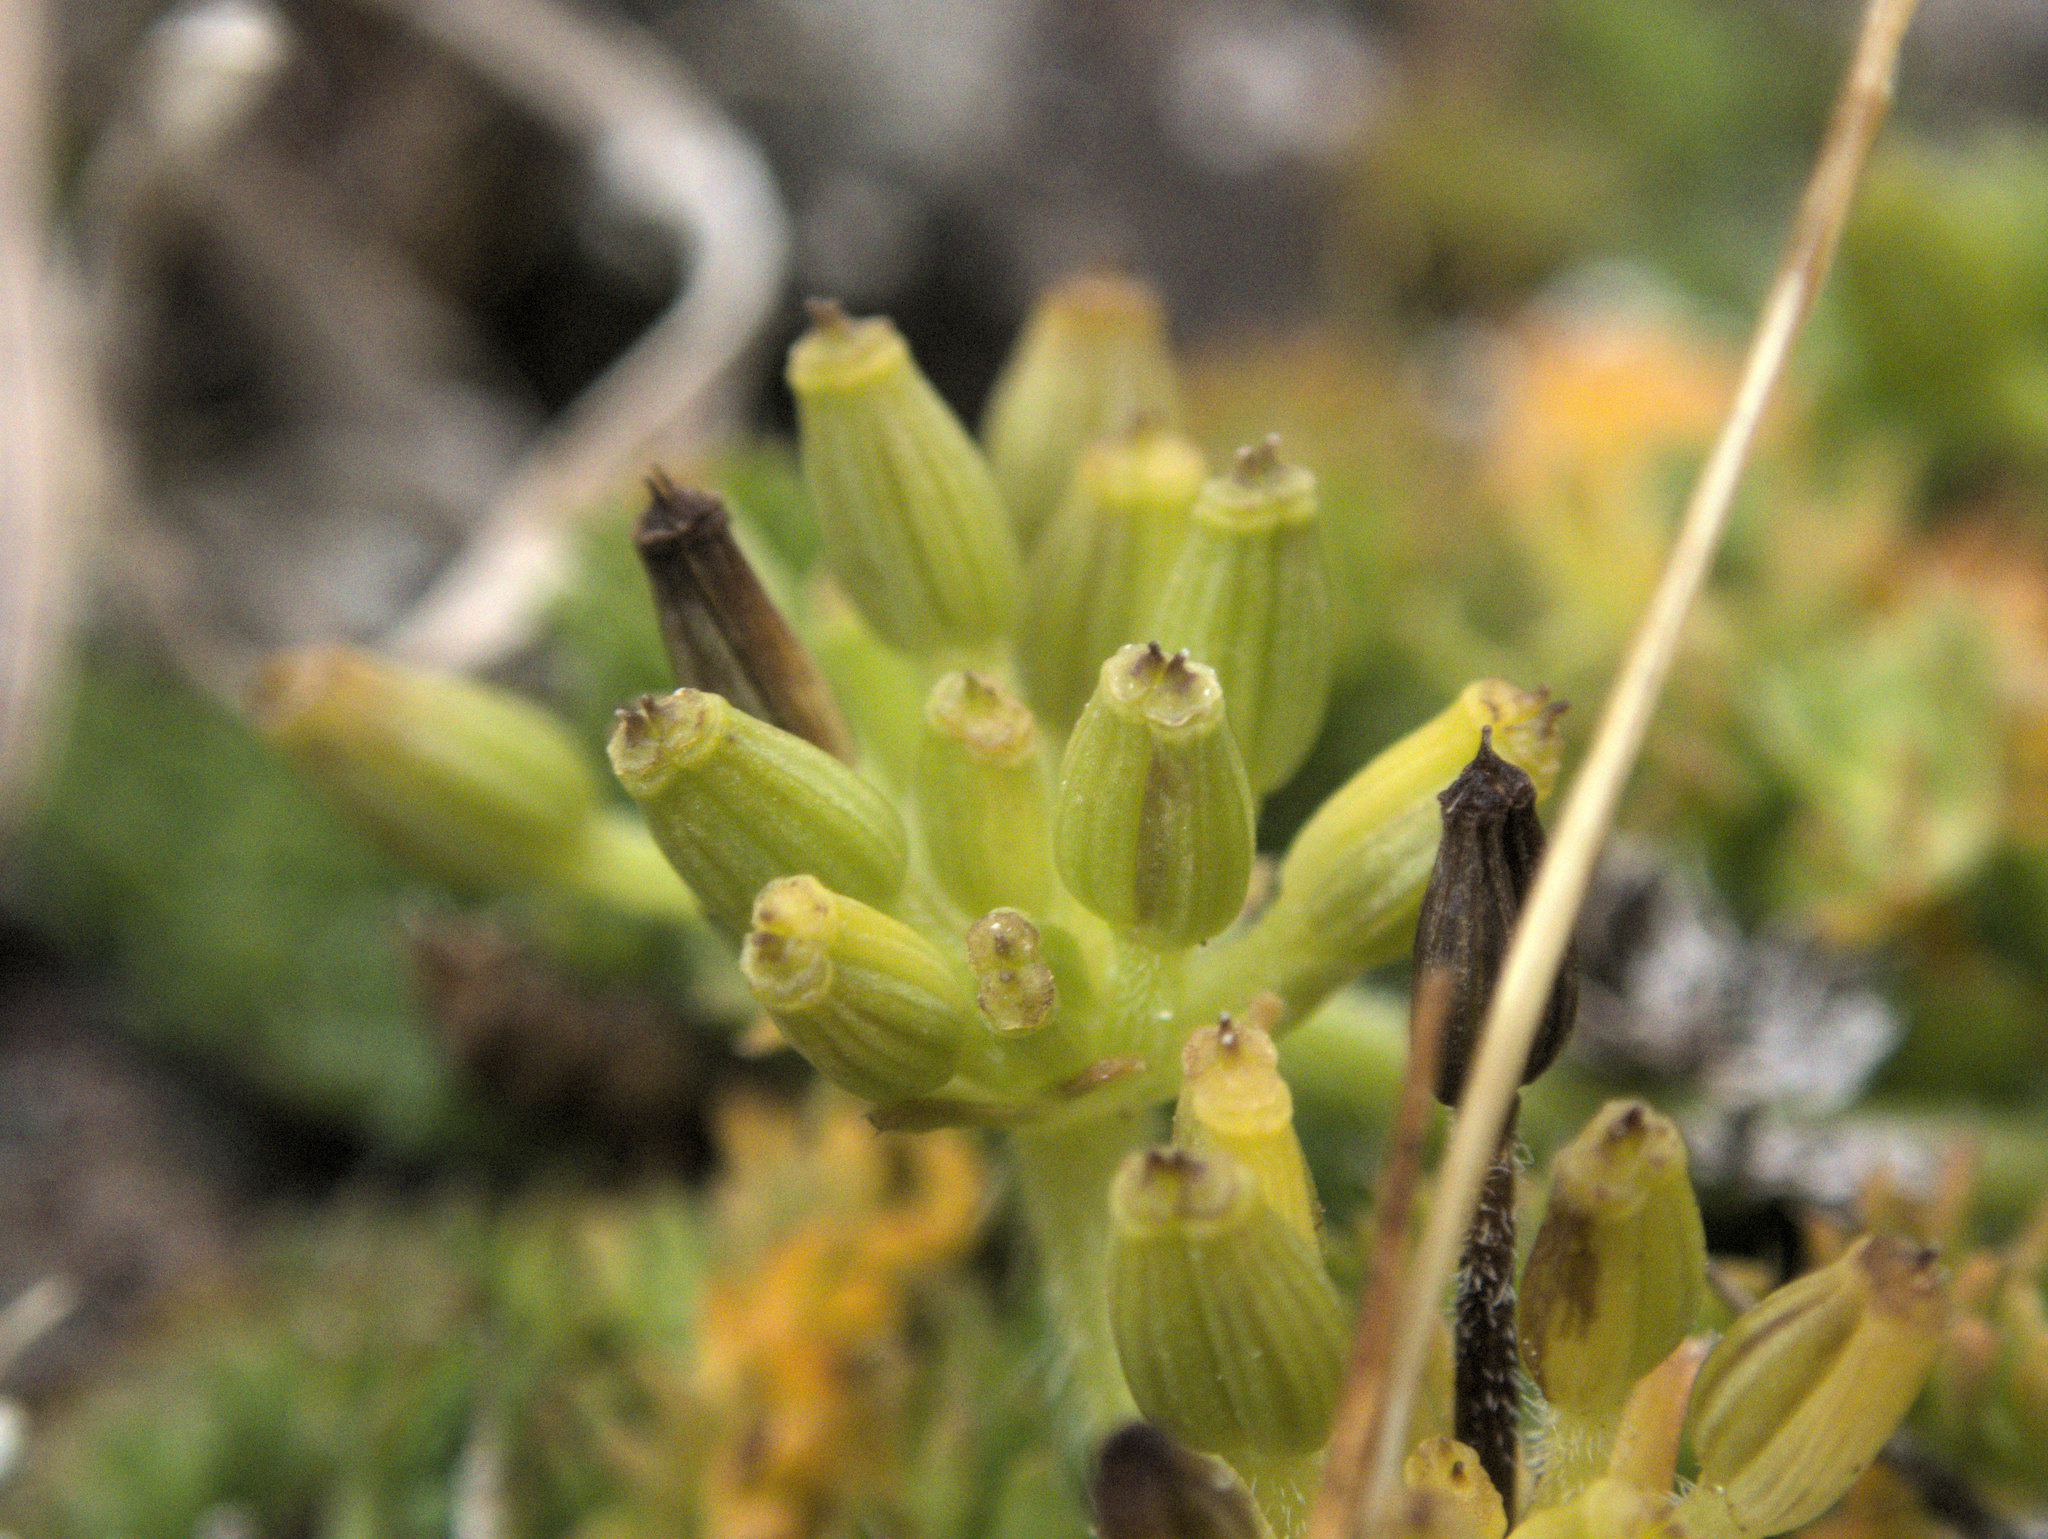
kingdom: Plantae
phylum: Tracheophyta
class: Magnoliopsida
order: Apiales
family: Apiaceae
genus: Chaerophyllum
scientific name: Chaerophyllum colensoi
